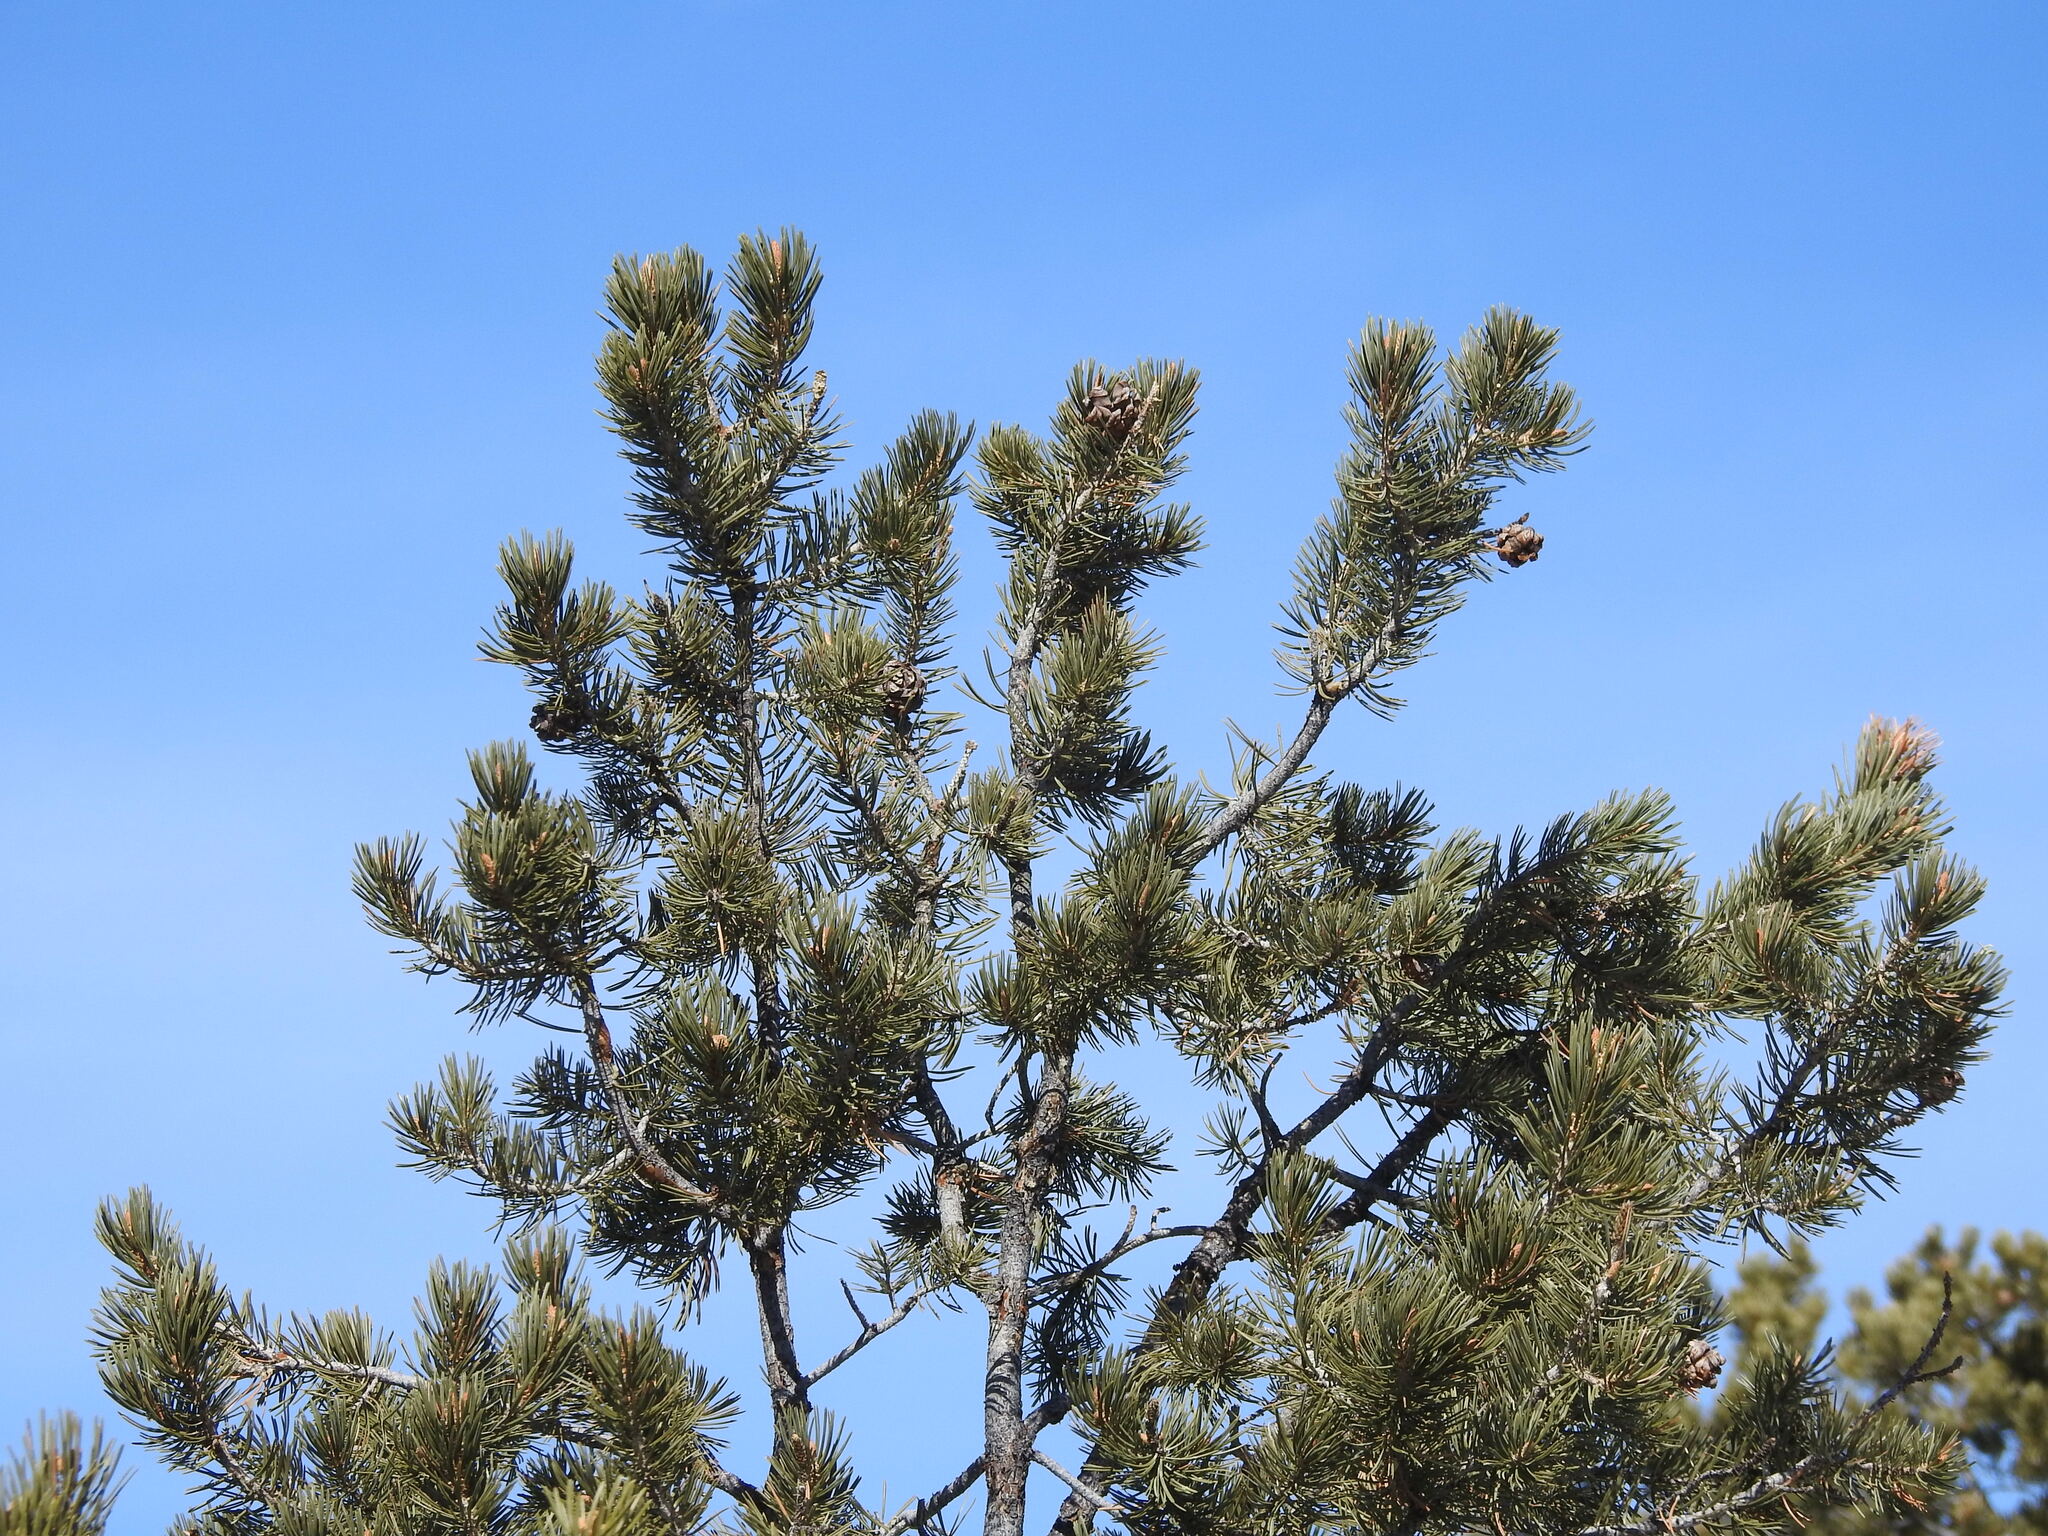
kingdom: Plantae
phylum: Tracheophyta
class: Pinopsida
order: Pinales
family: Pinaceae
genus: Pinus
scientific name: Pinus edulis
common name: Colorado pinyon
